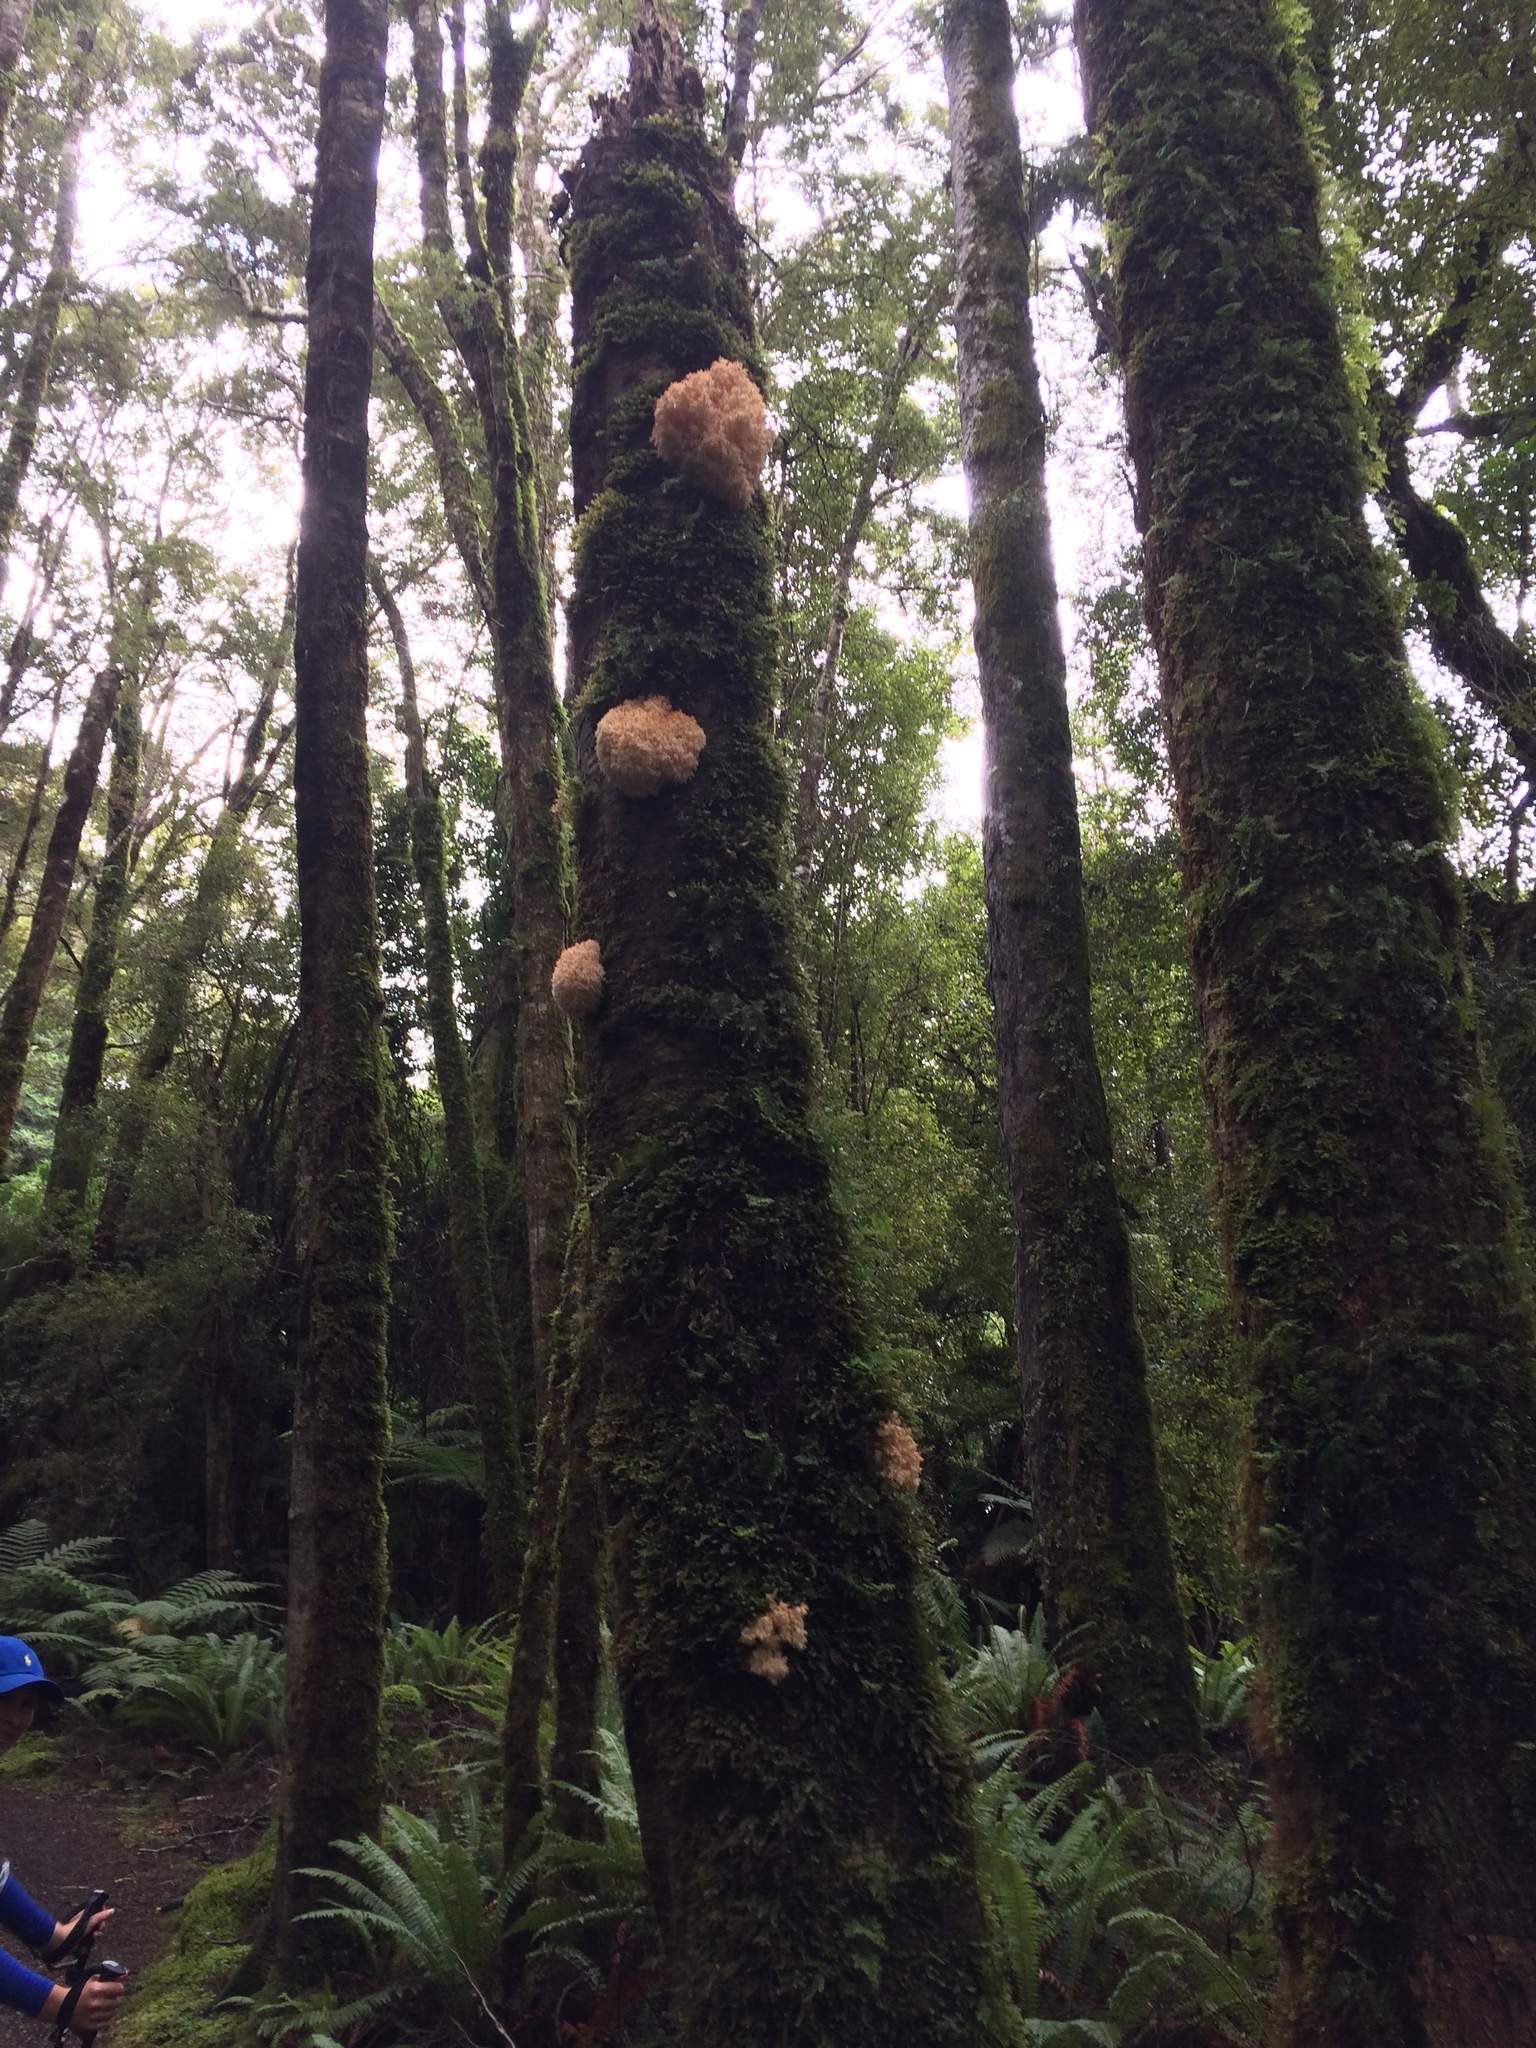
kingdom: Fungi
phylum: Basidiomycota
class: Agaricomycetes
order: Russulales
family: Hericiaceae
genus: Hericium
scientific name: Hericium novae-zealandiae
